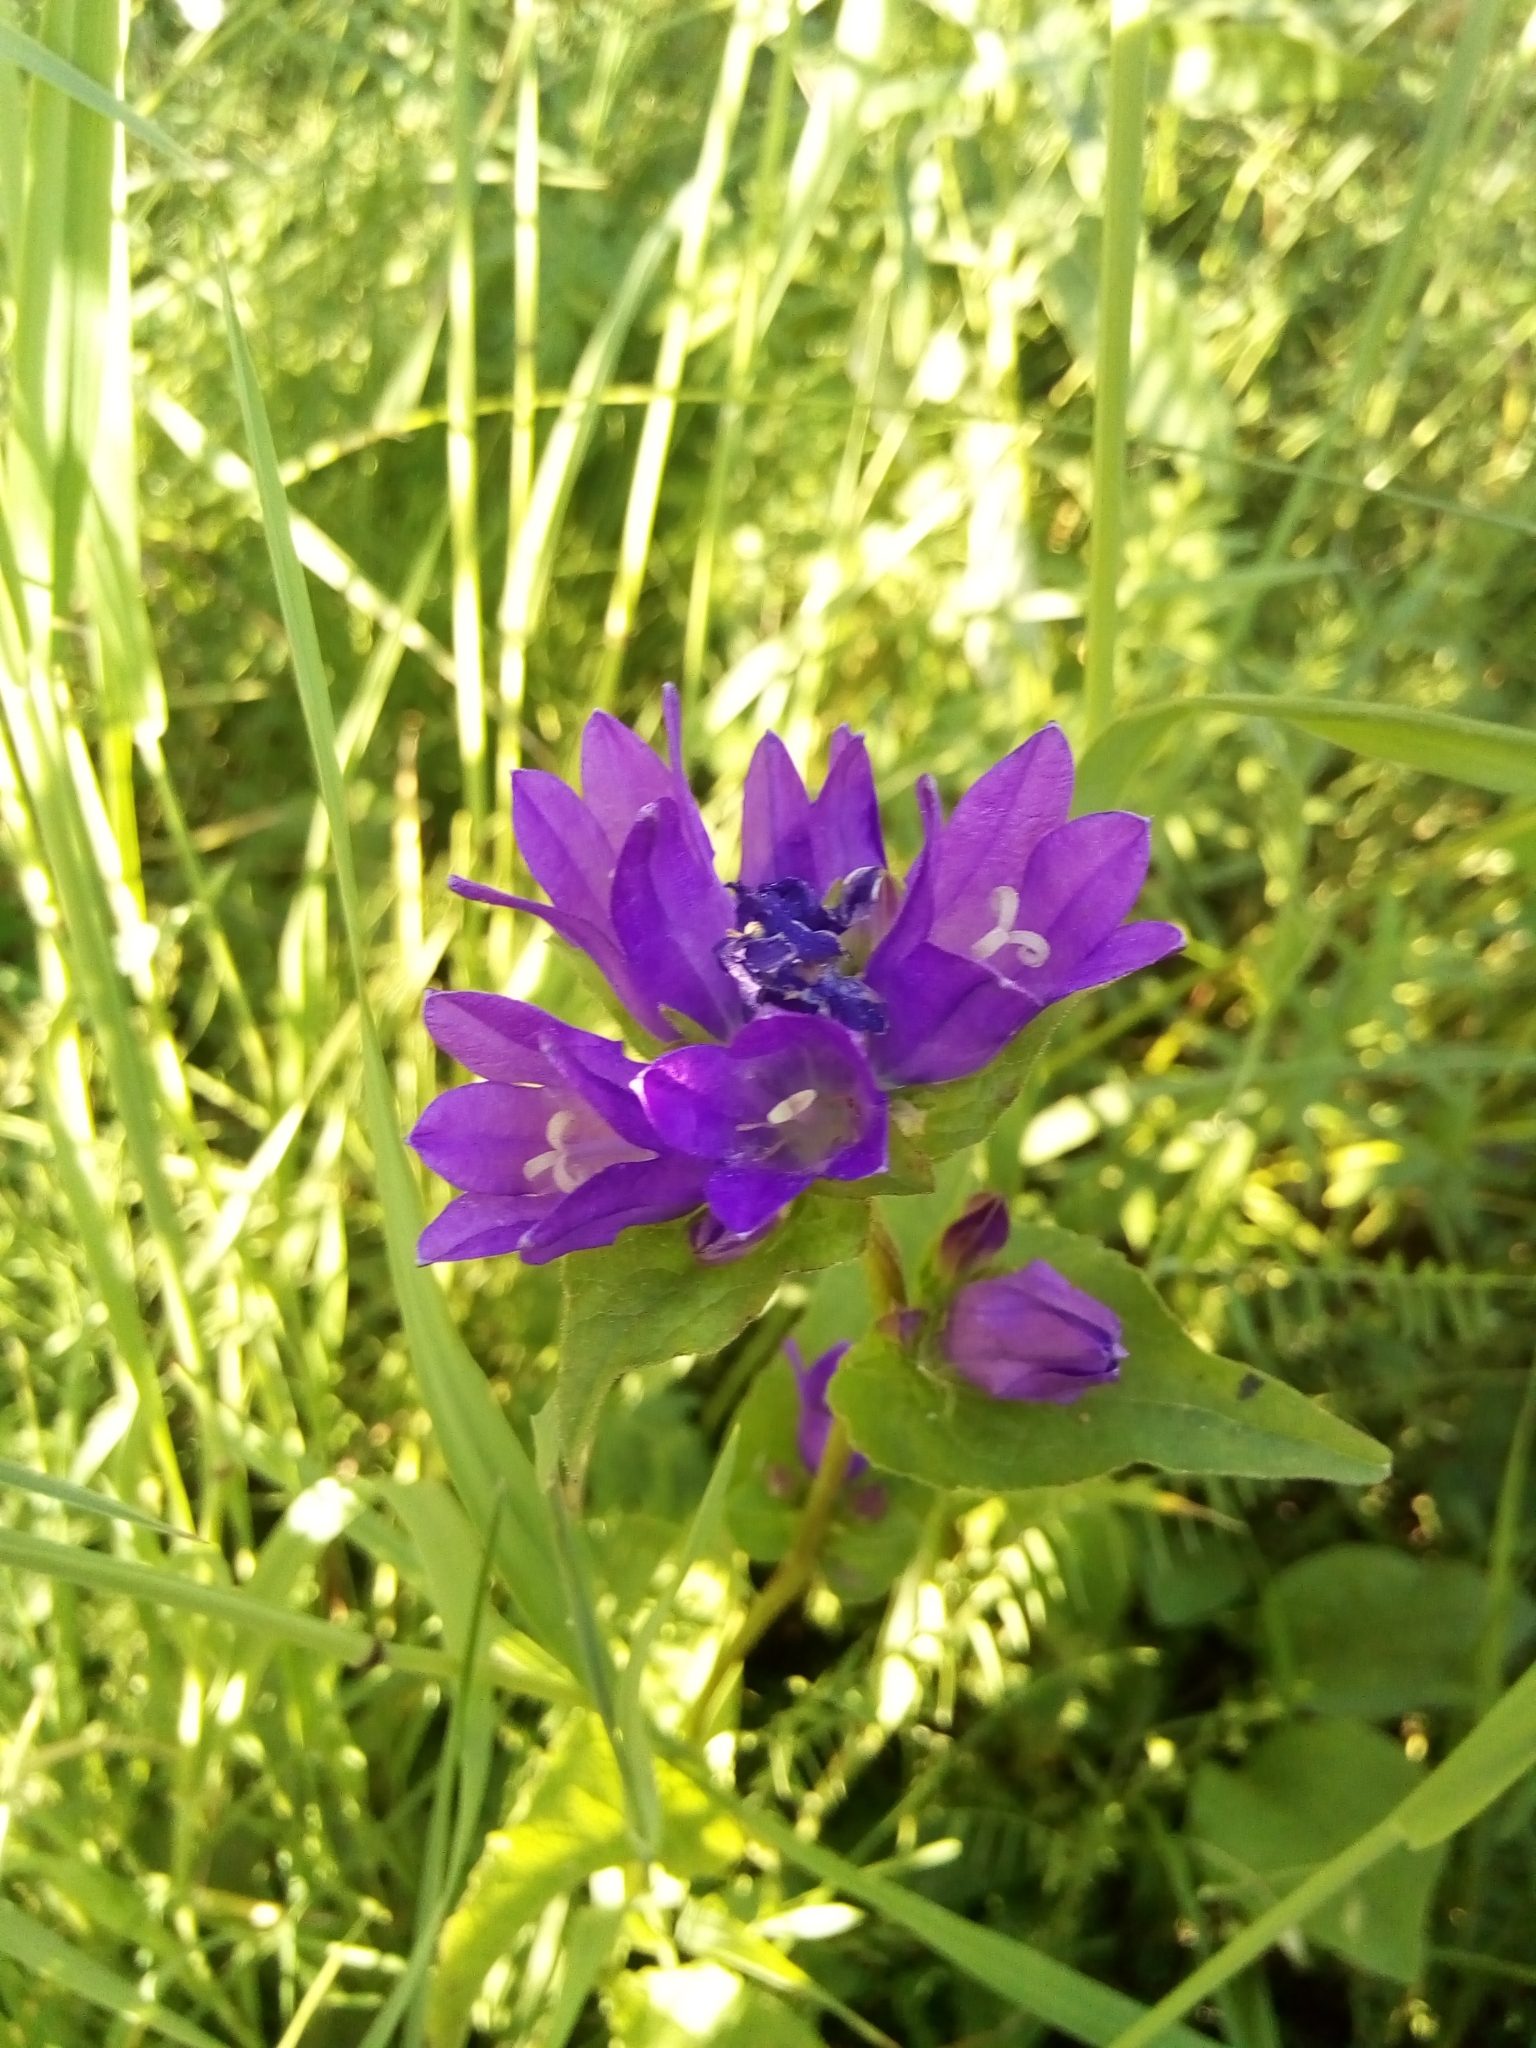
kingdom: Plantae
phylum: Tracheophyta
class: Magnoliopsida
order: Asterales
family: Campanulaceae
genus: Campanula
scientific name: Campanula glomerata
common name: Clustered bellflower
